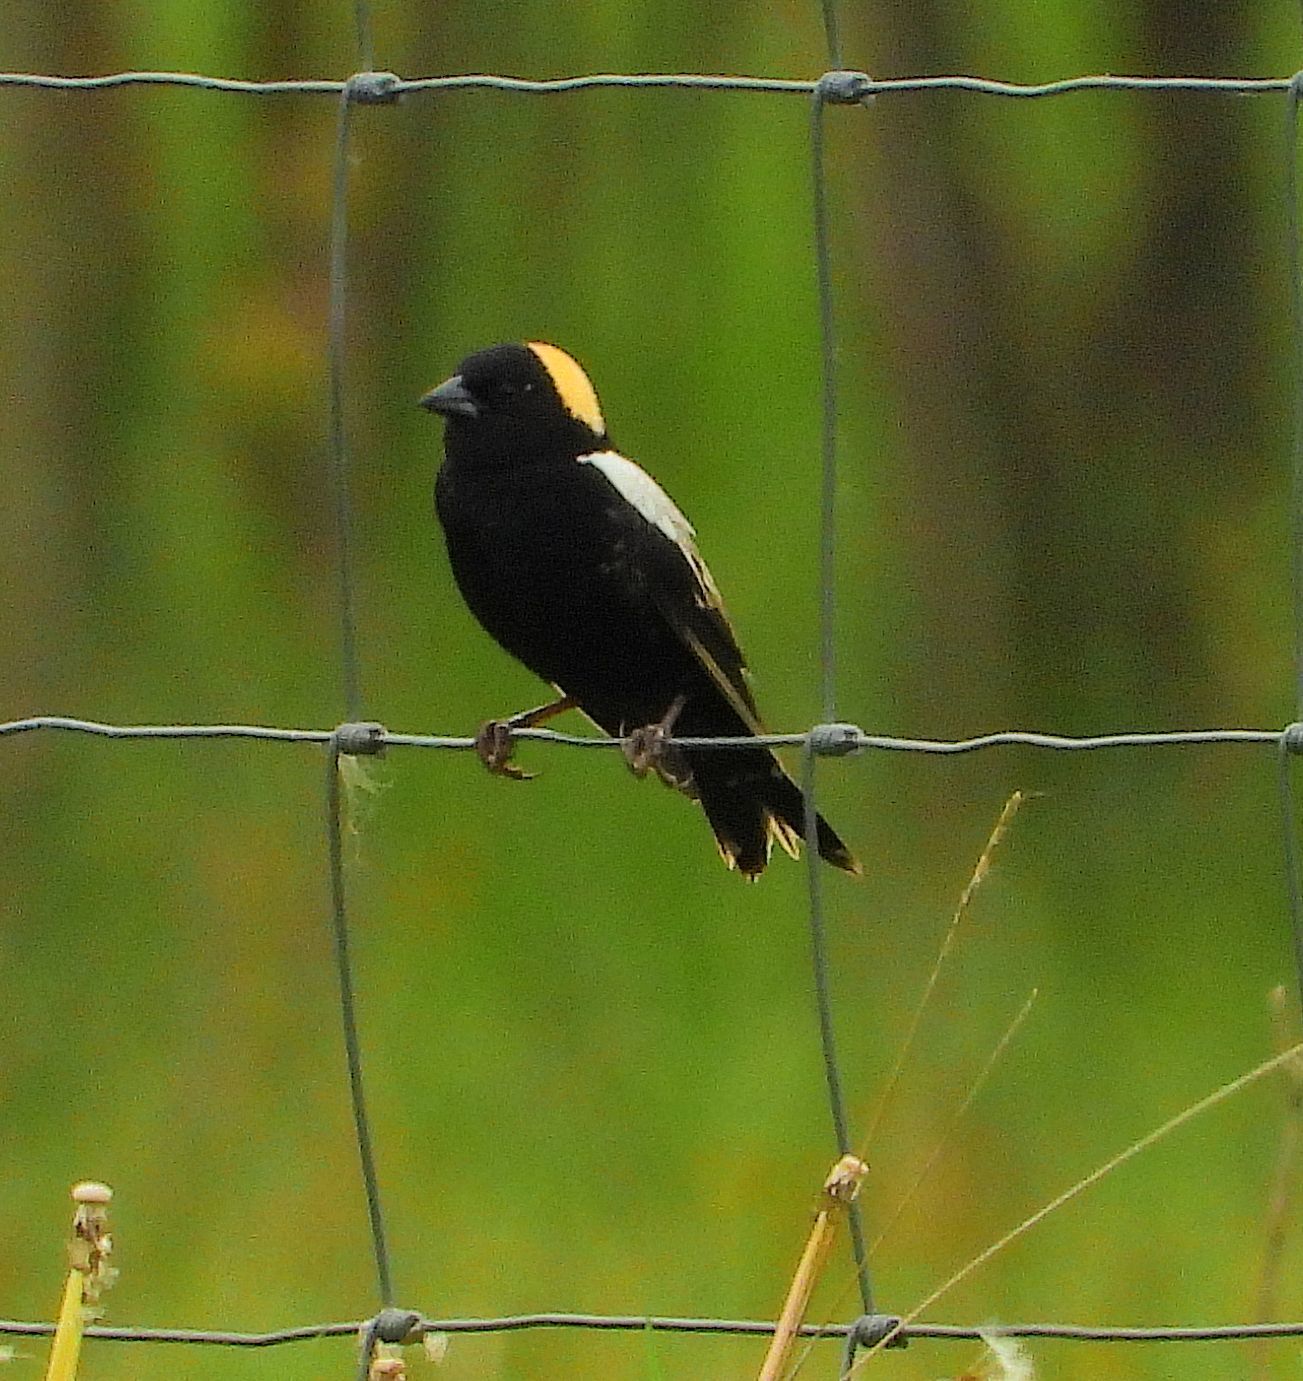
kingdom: Animalia
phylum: Chordata
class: Aves
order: Passeriformes
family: Icteridae
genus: Dolichonyx
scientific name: Dolichonyx oryzivorus
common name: Bobolink
